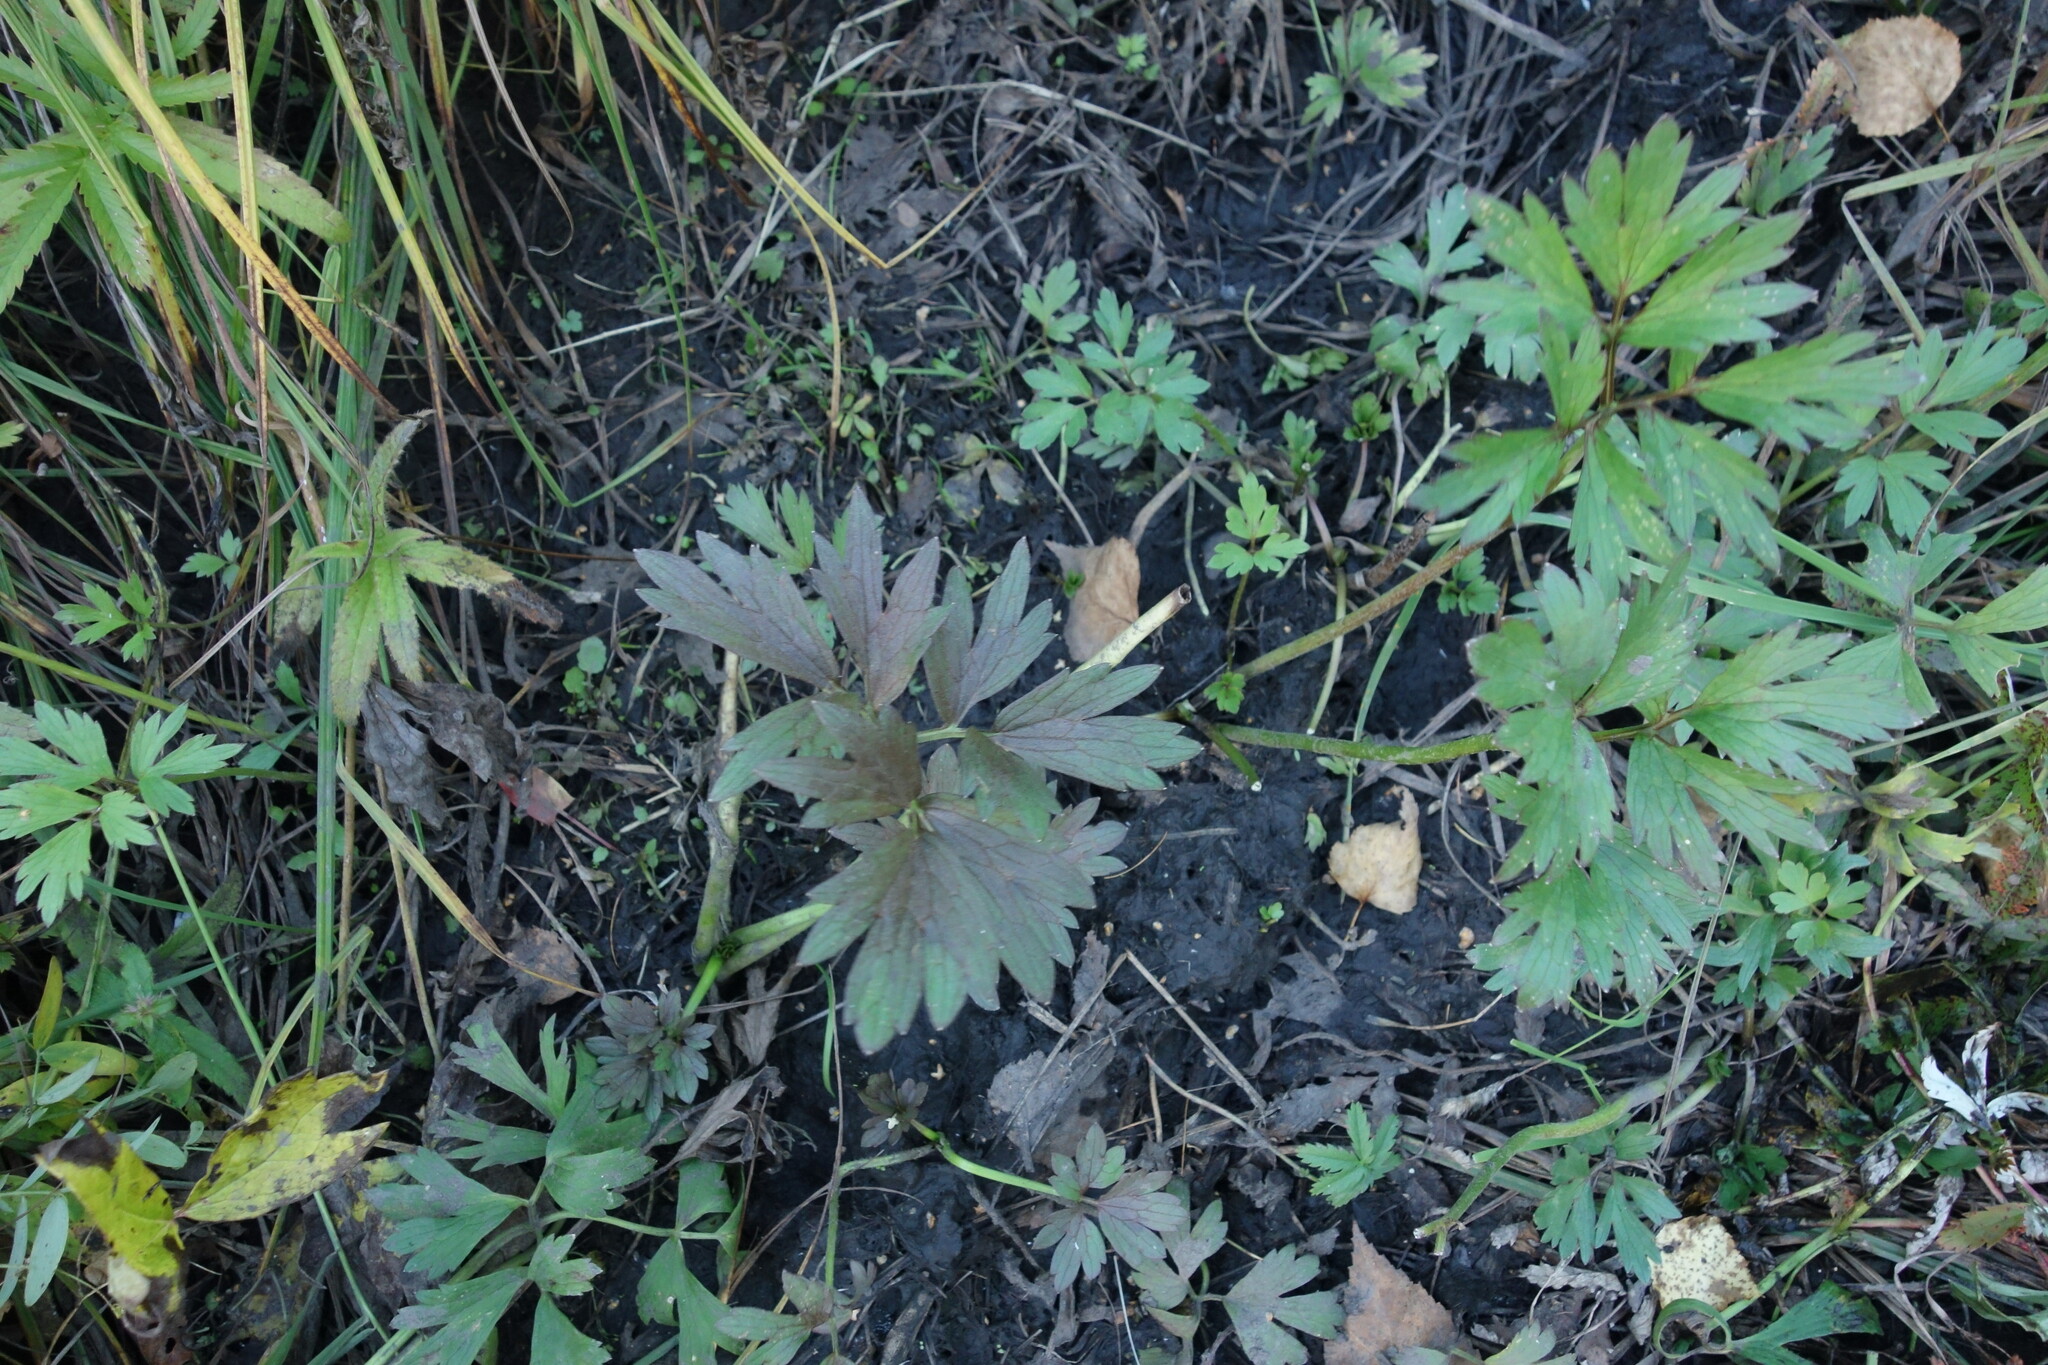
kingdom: Plantae
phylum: Tracheophyta
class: Magnoliopsida
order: Ranunculales
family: Ranunculaceae
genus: Ranunculus
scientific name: Ranunculus repens
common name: Creeping buttercup
